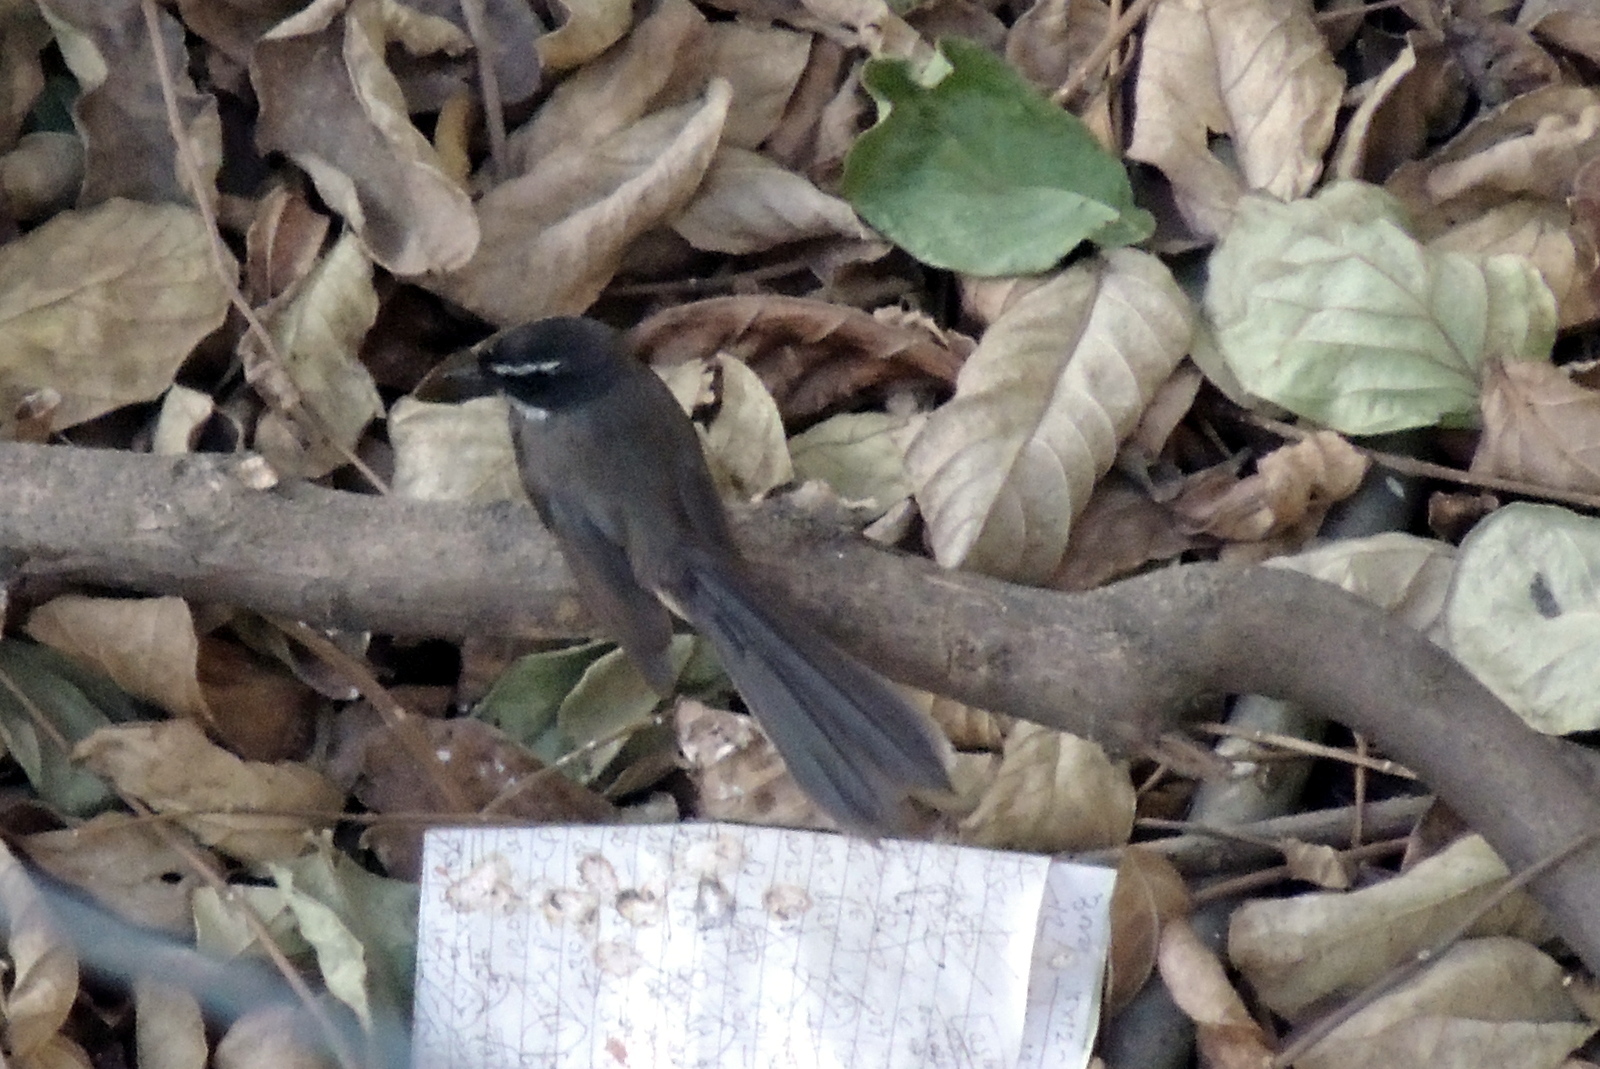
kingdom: Animalia
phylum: Chordata
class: Aves
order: Passeriformes
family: Rhipiduridae
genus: Rhipidura
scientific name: Rhipidura albogularis
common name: White-spotted fantail
